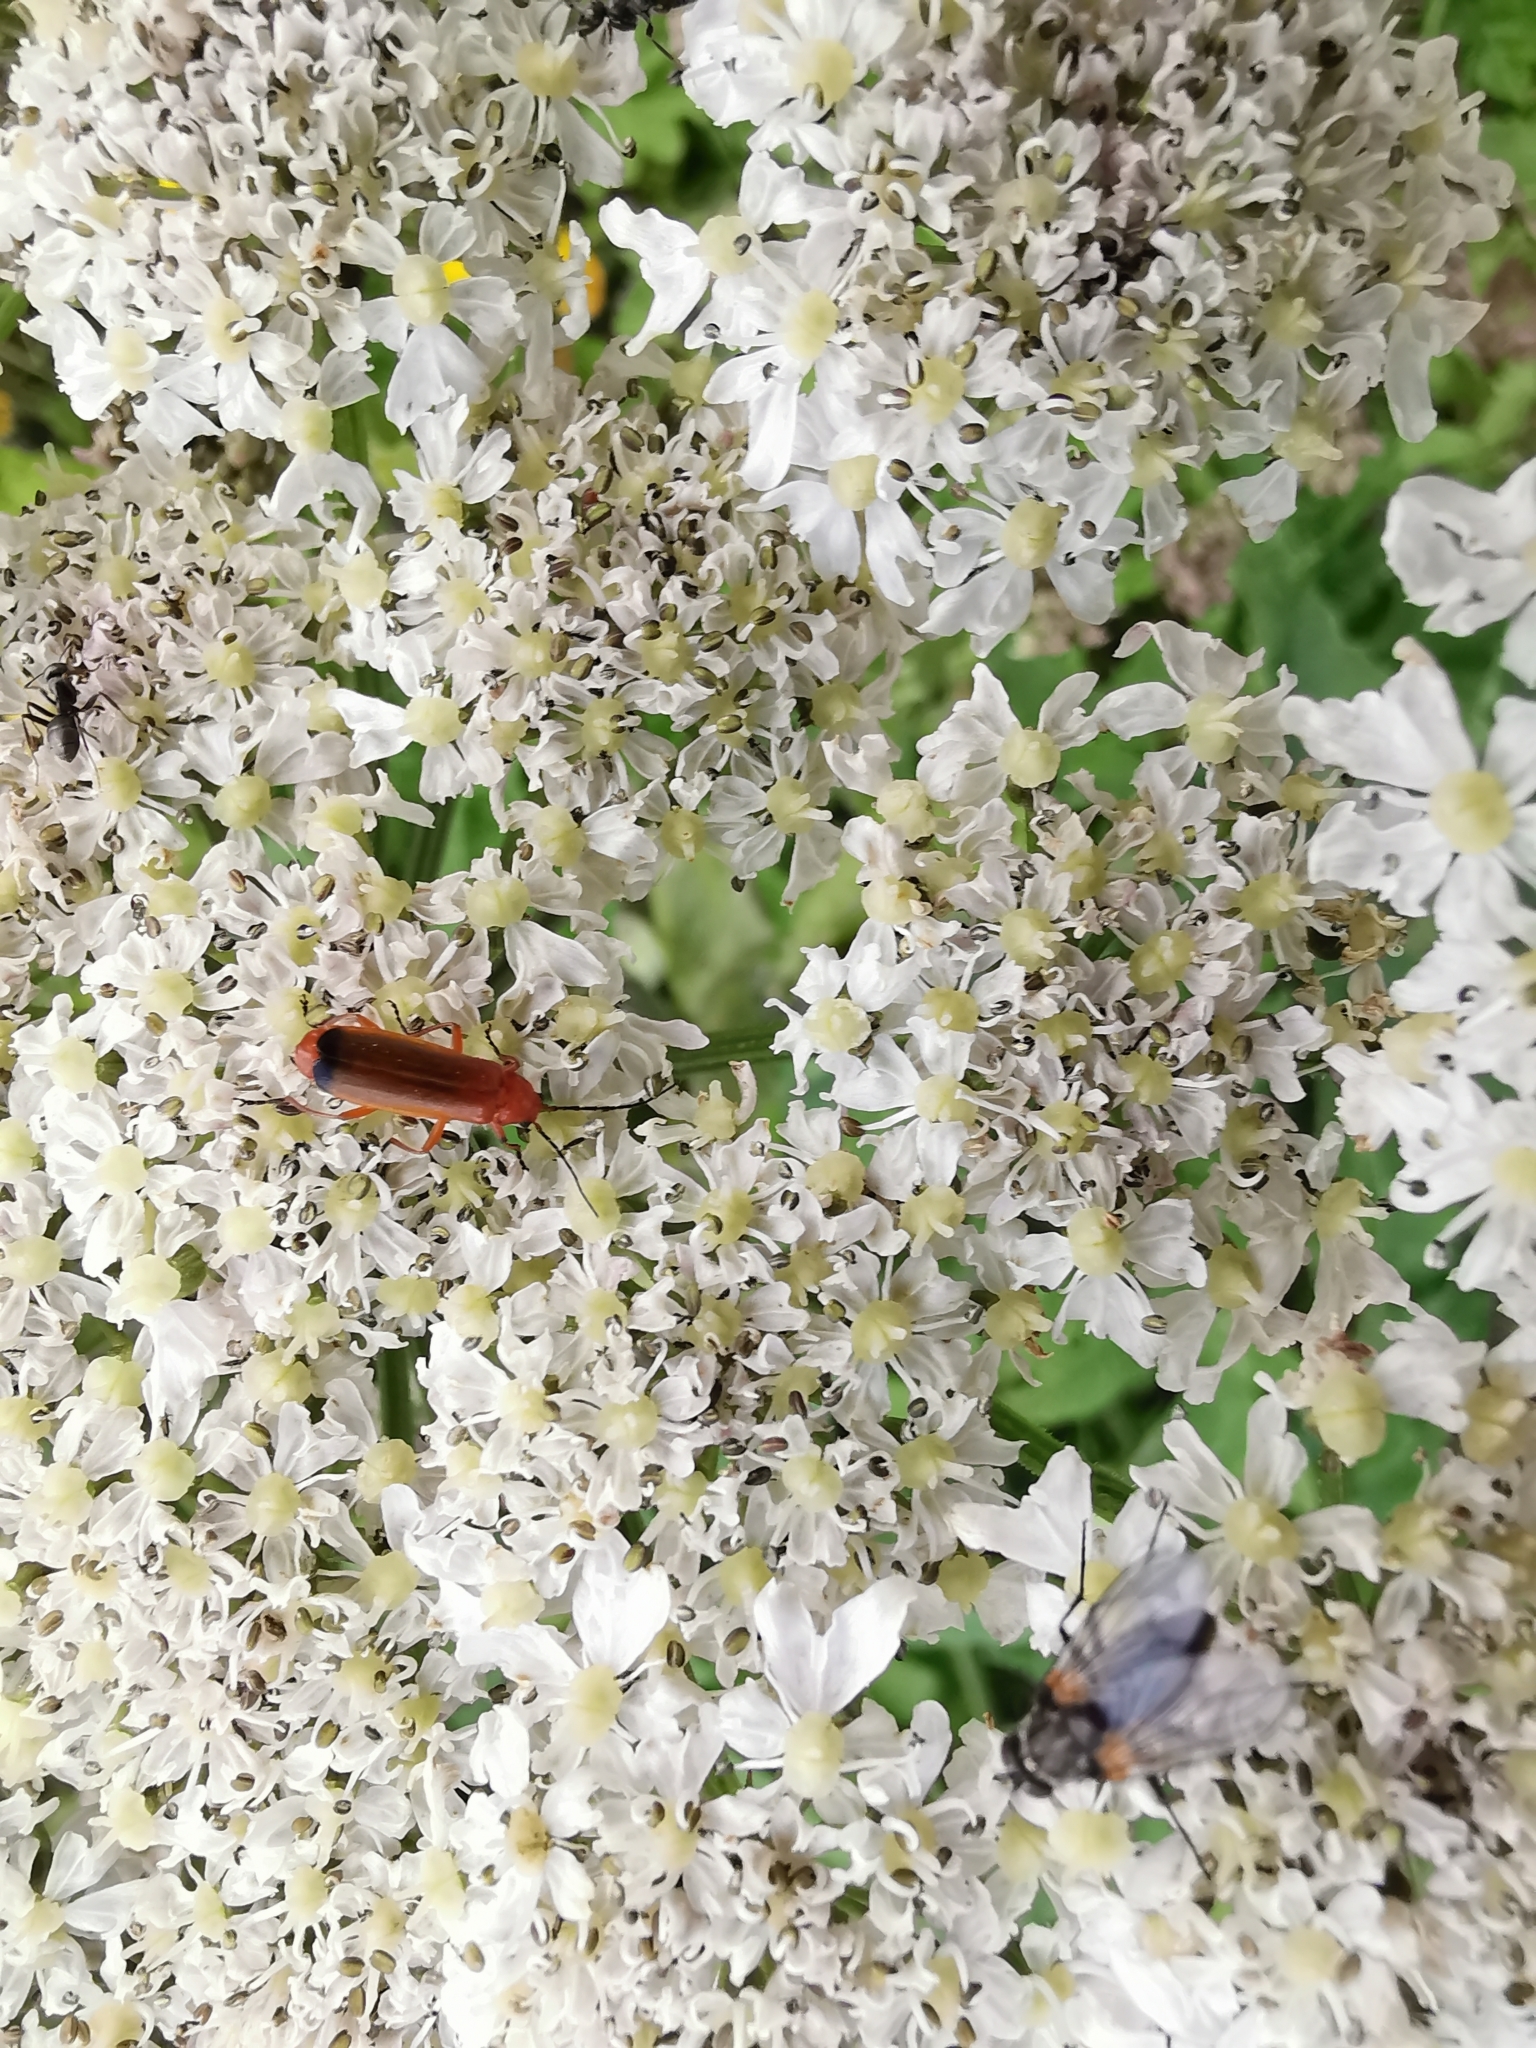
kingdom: Animalia
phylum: Arthropoda
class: Insecta
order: Coleoptera
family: Cantharidae
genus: Rhagonycha
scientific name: Rhagonycha fulva
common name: Common red soldier beetle
